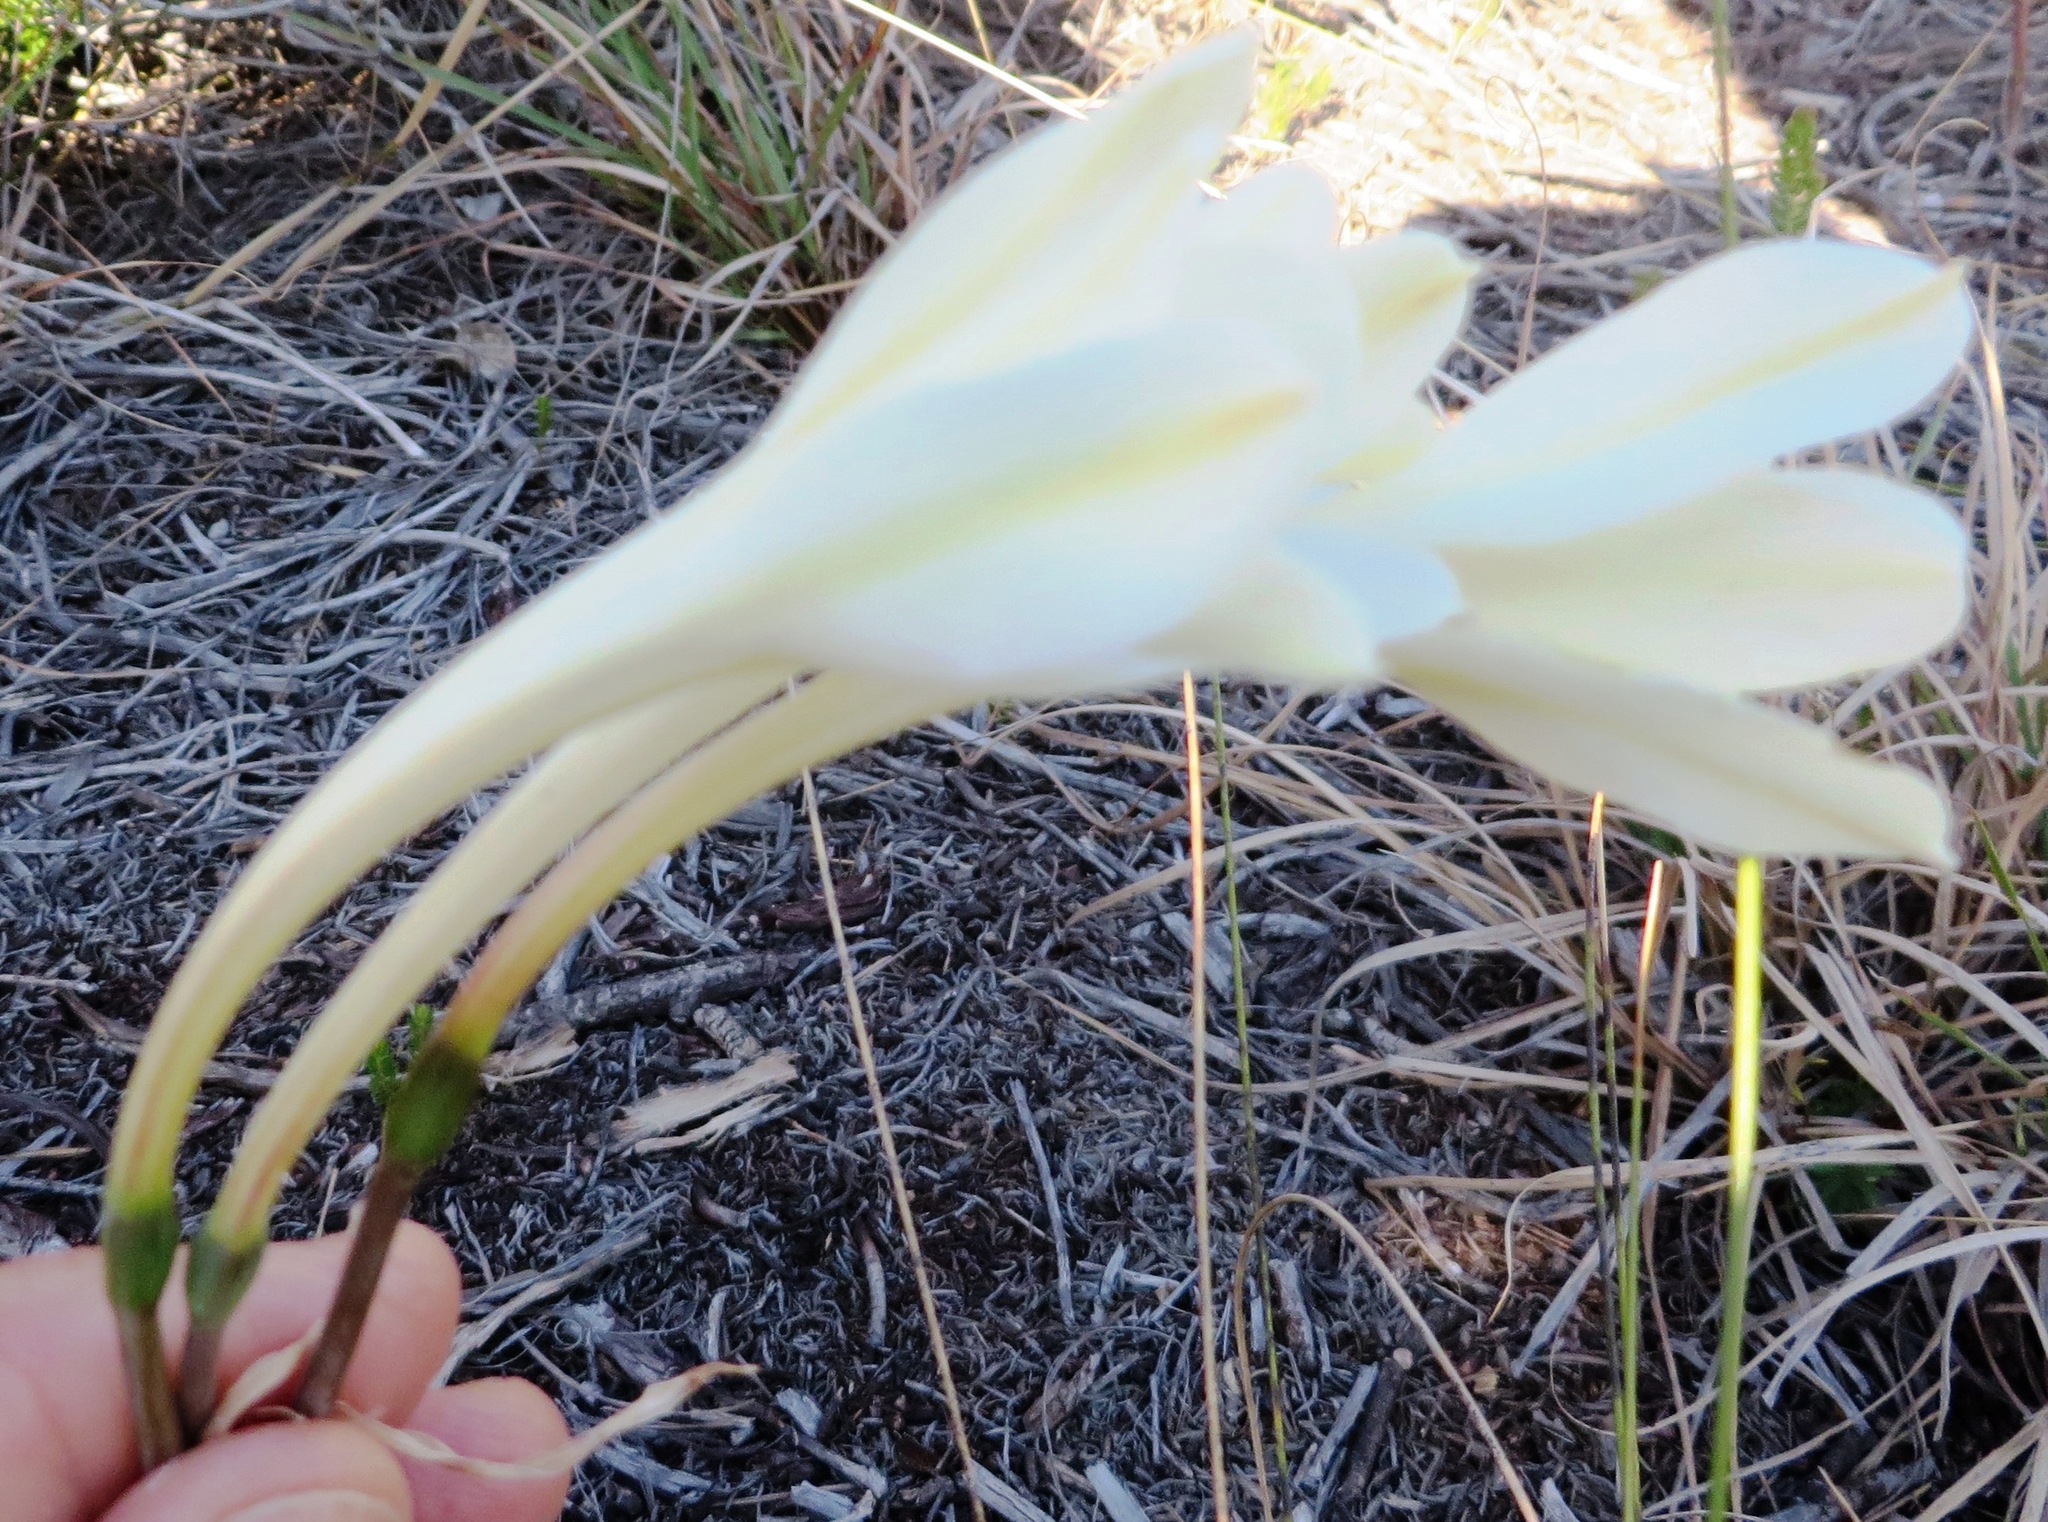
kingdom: Plantae
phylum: Tracheophyta
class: Liliopsida
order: Asparagales
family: Amaryllidaceae
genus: Cyrtanthus
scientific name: Cyrtanthus leucanthus
